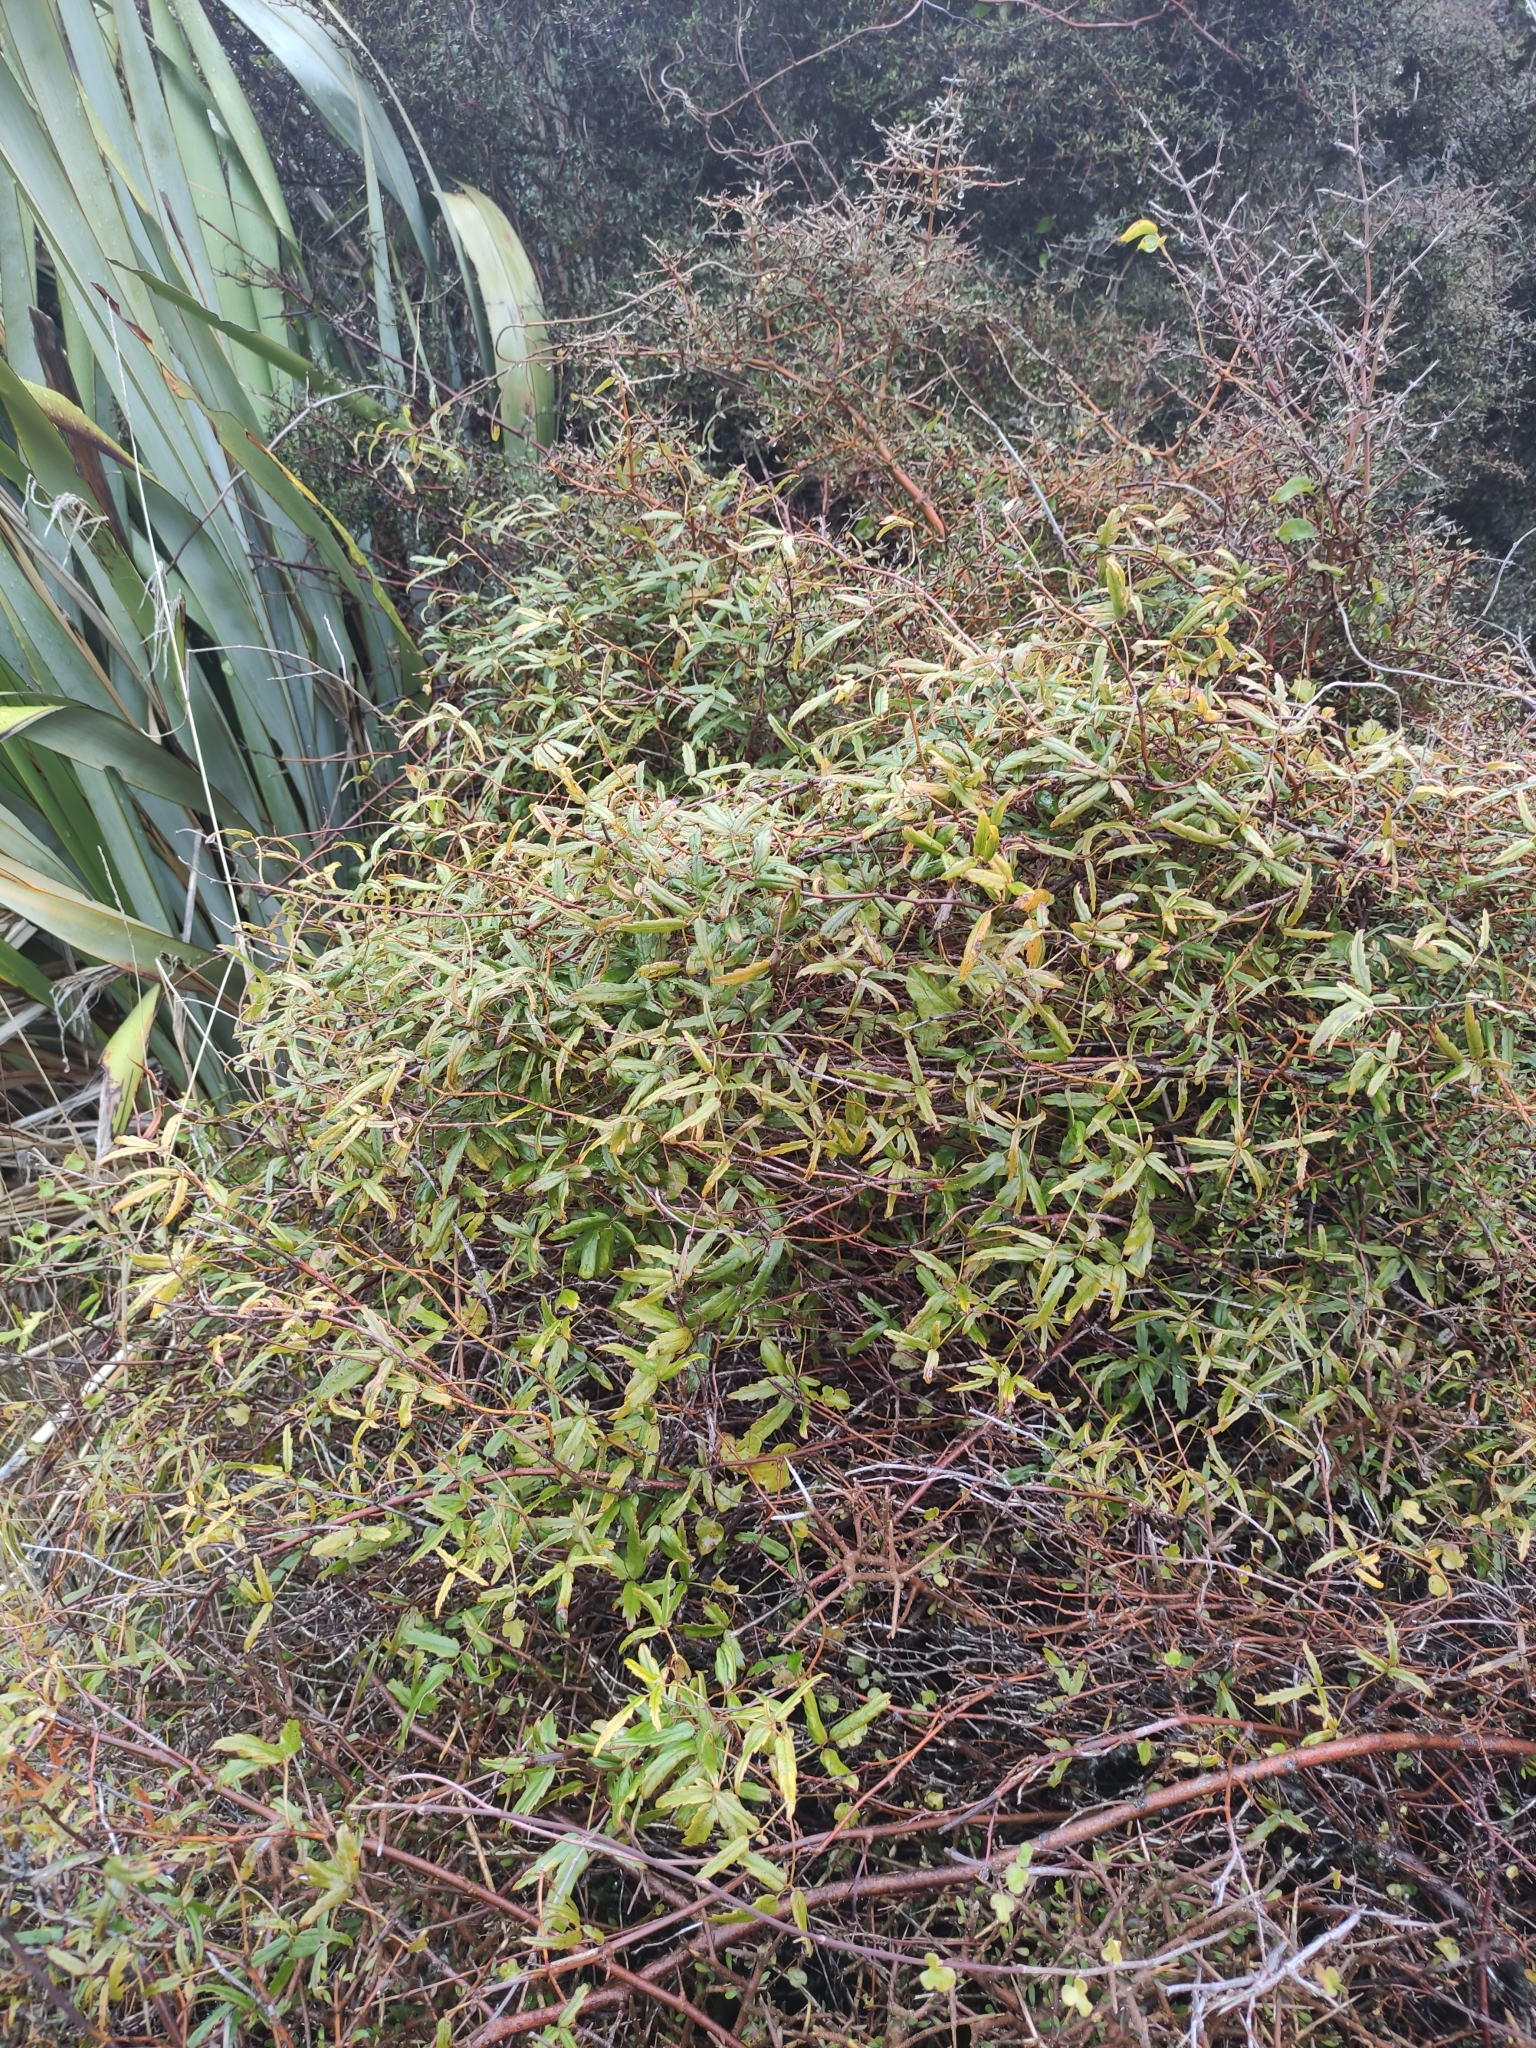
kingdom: Plantae
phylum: Tracheophyta
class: Magnoliopsida
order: Rosales
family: Rosaceae
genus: Rubus
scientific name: Rubus schmidelioides
